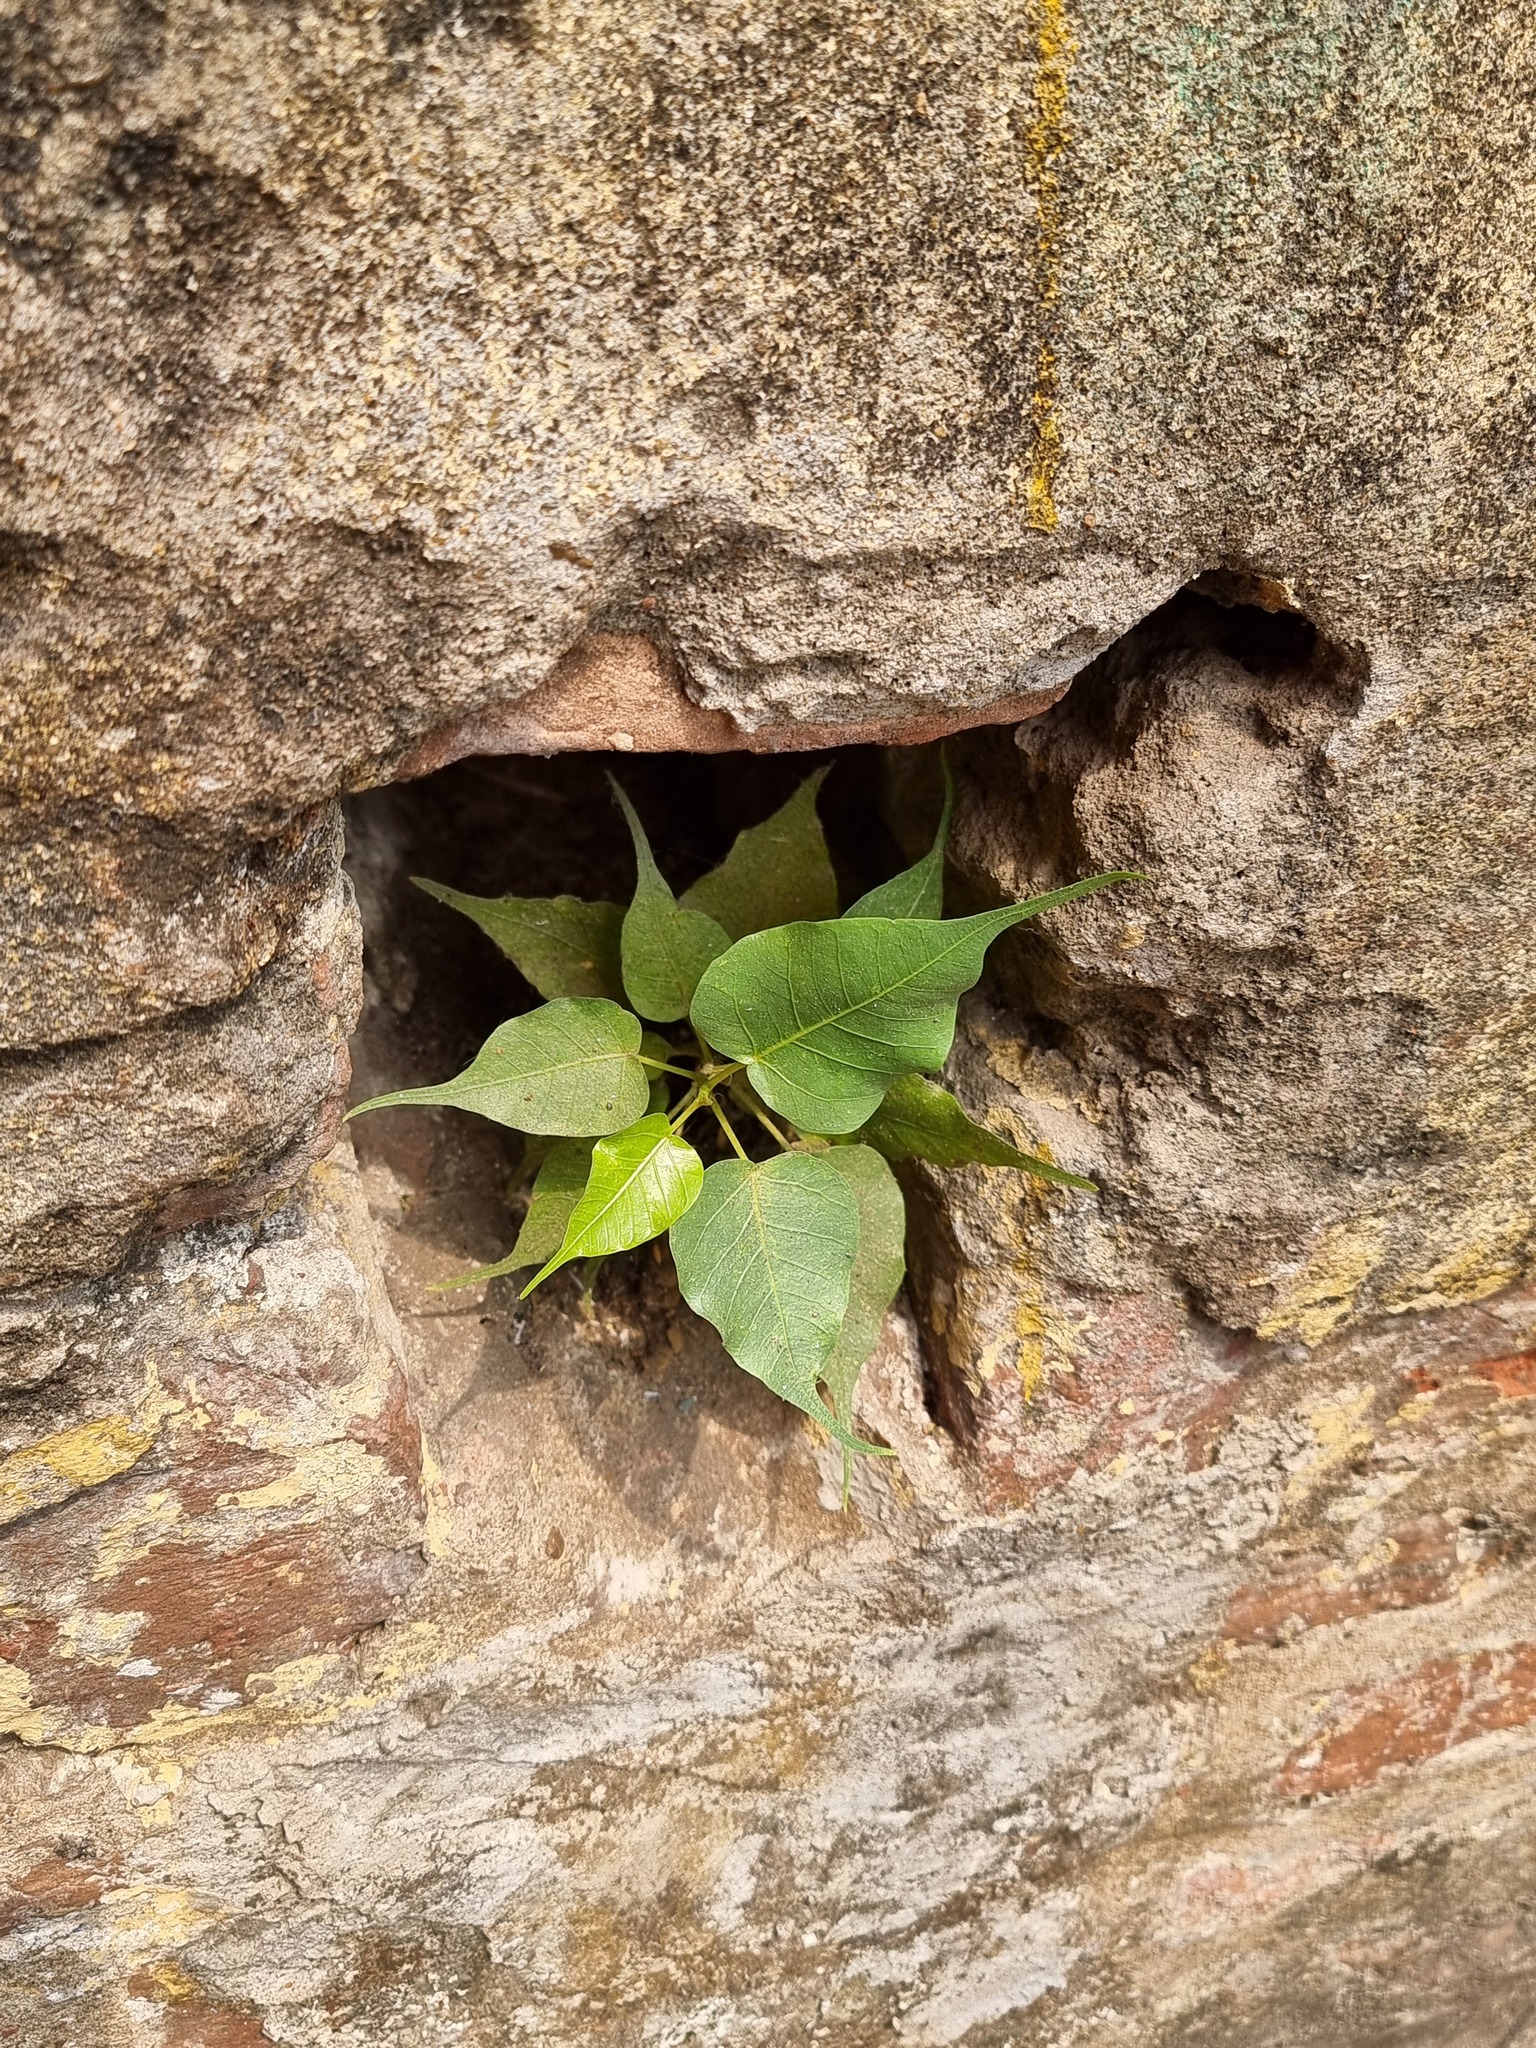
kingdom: Plantae
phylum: Tracheophyta
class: Magnoliopsida
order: Rosales
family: Moraceae
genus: Ficus
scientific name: Ficus religiosa
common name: Bodhi tree
